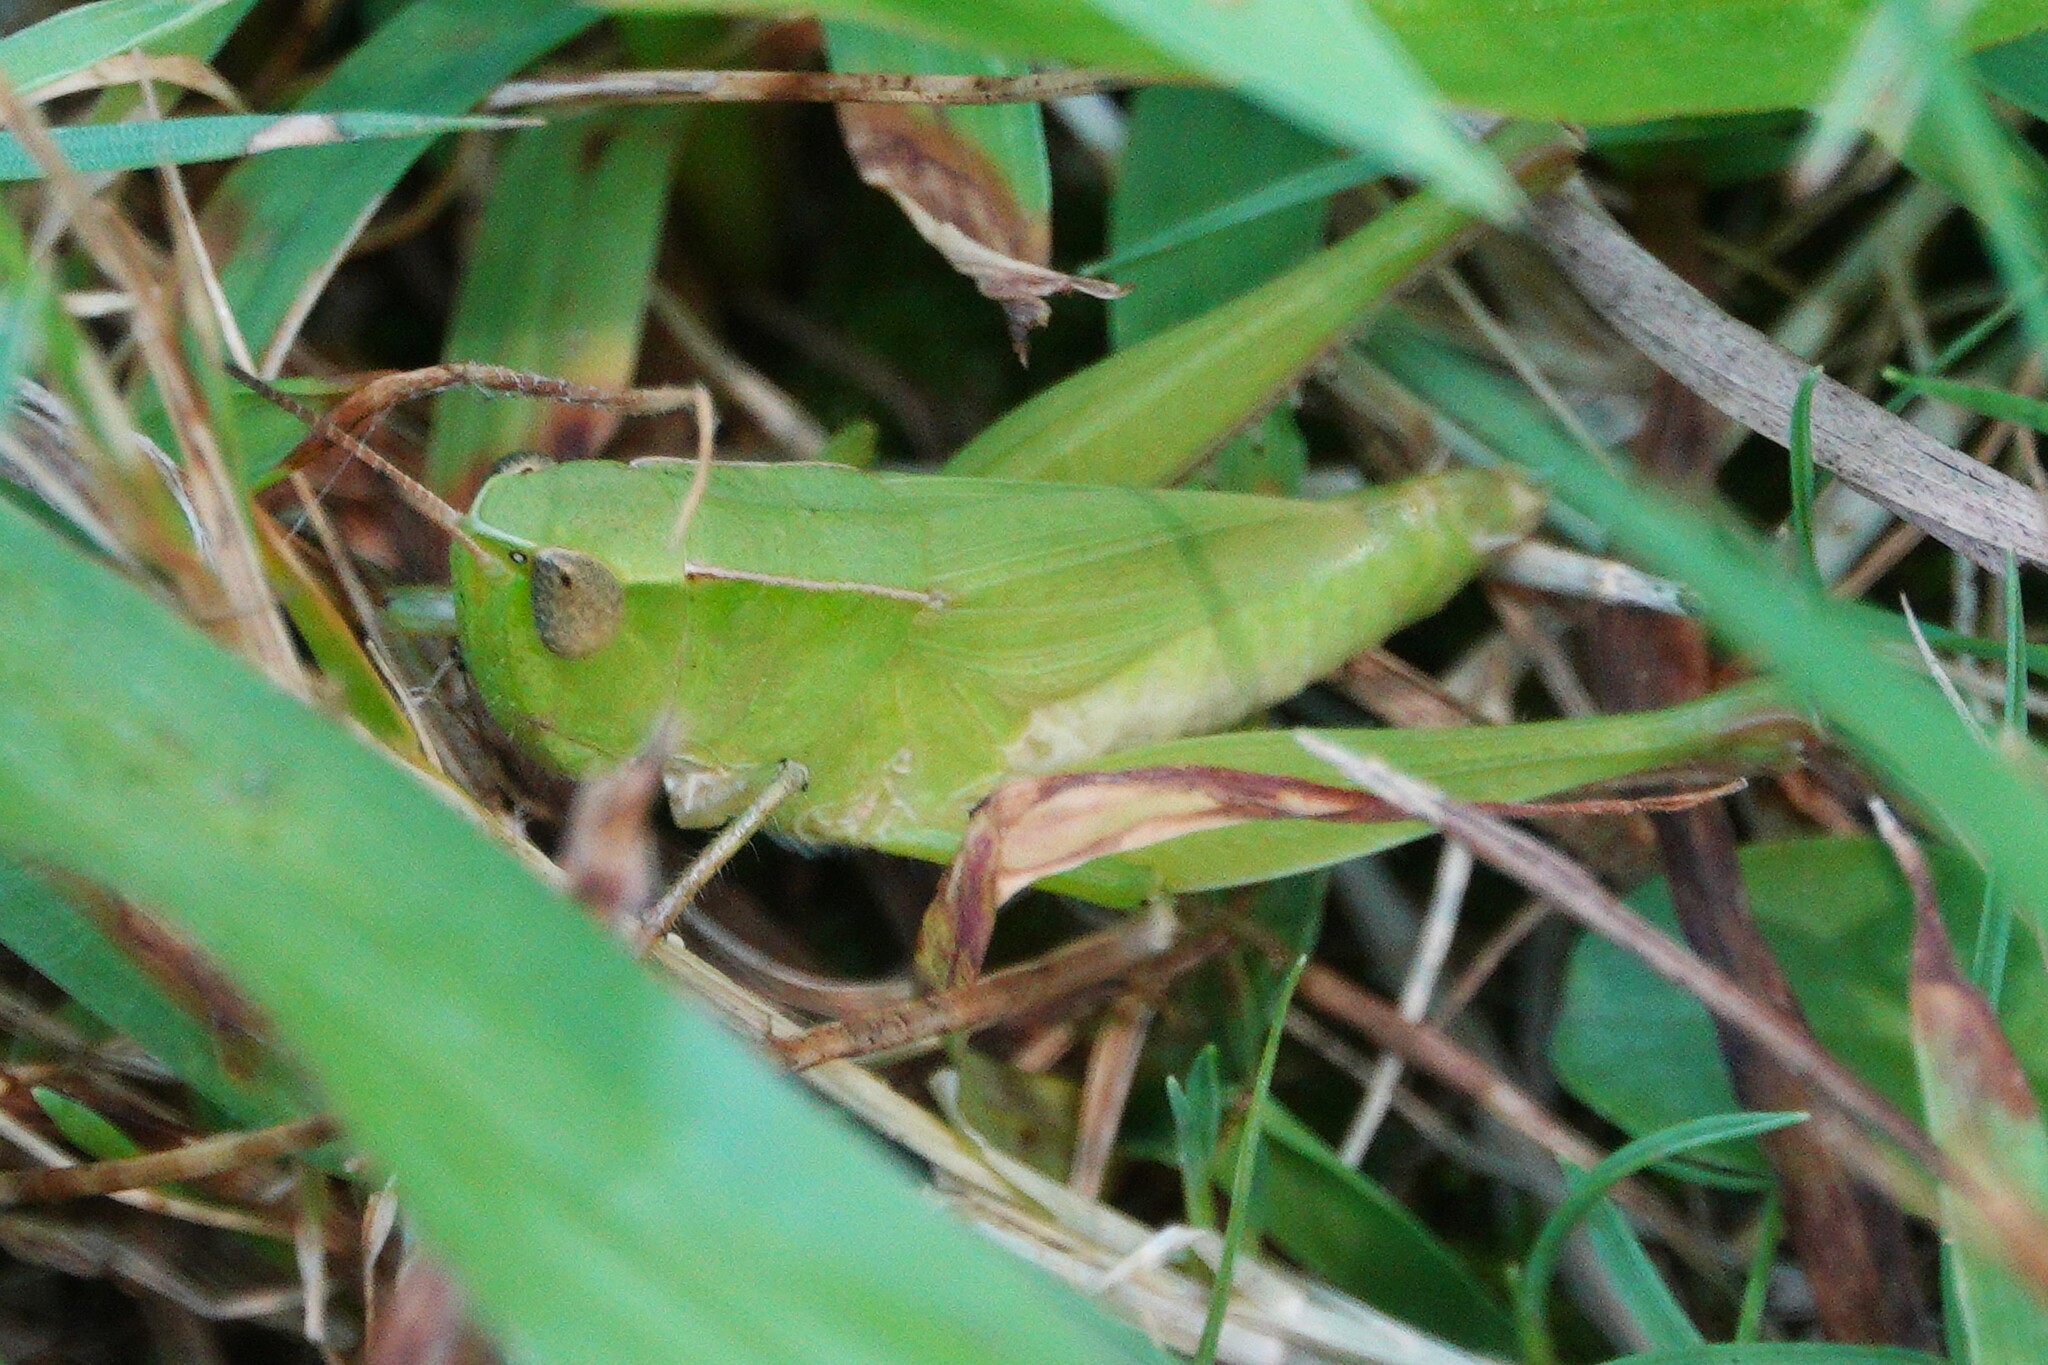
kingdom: Animalia
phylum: Arthropoda
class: Insecta
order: Orthoptera
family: Acrididae
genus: Dichromorpha
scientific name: Dichromorpha viridis
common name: Short-winged green grasshopper
